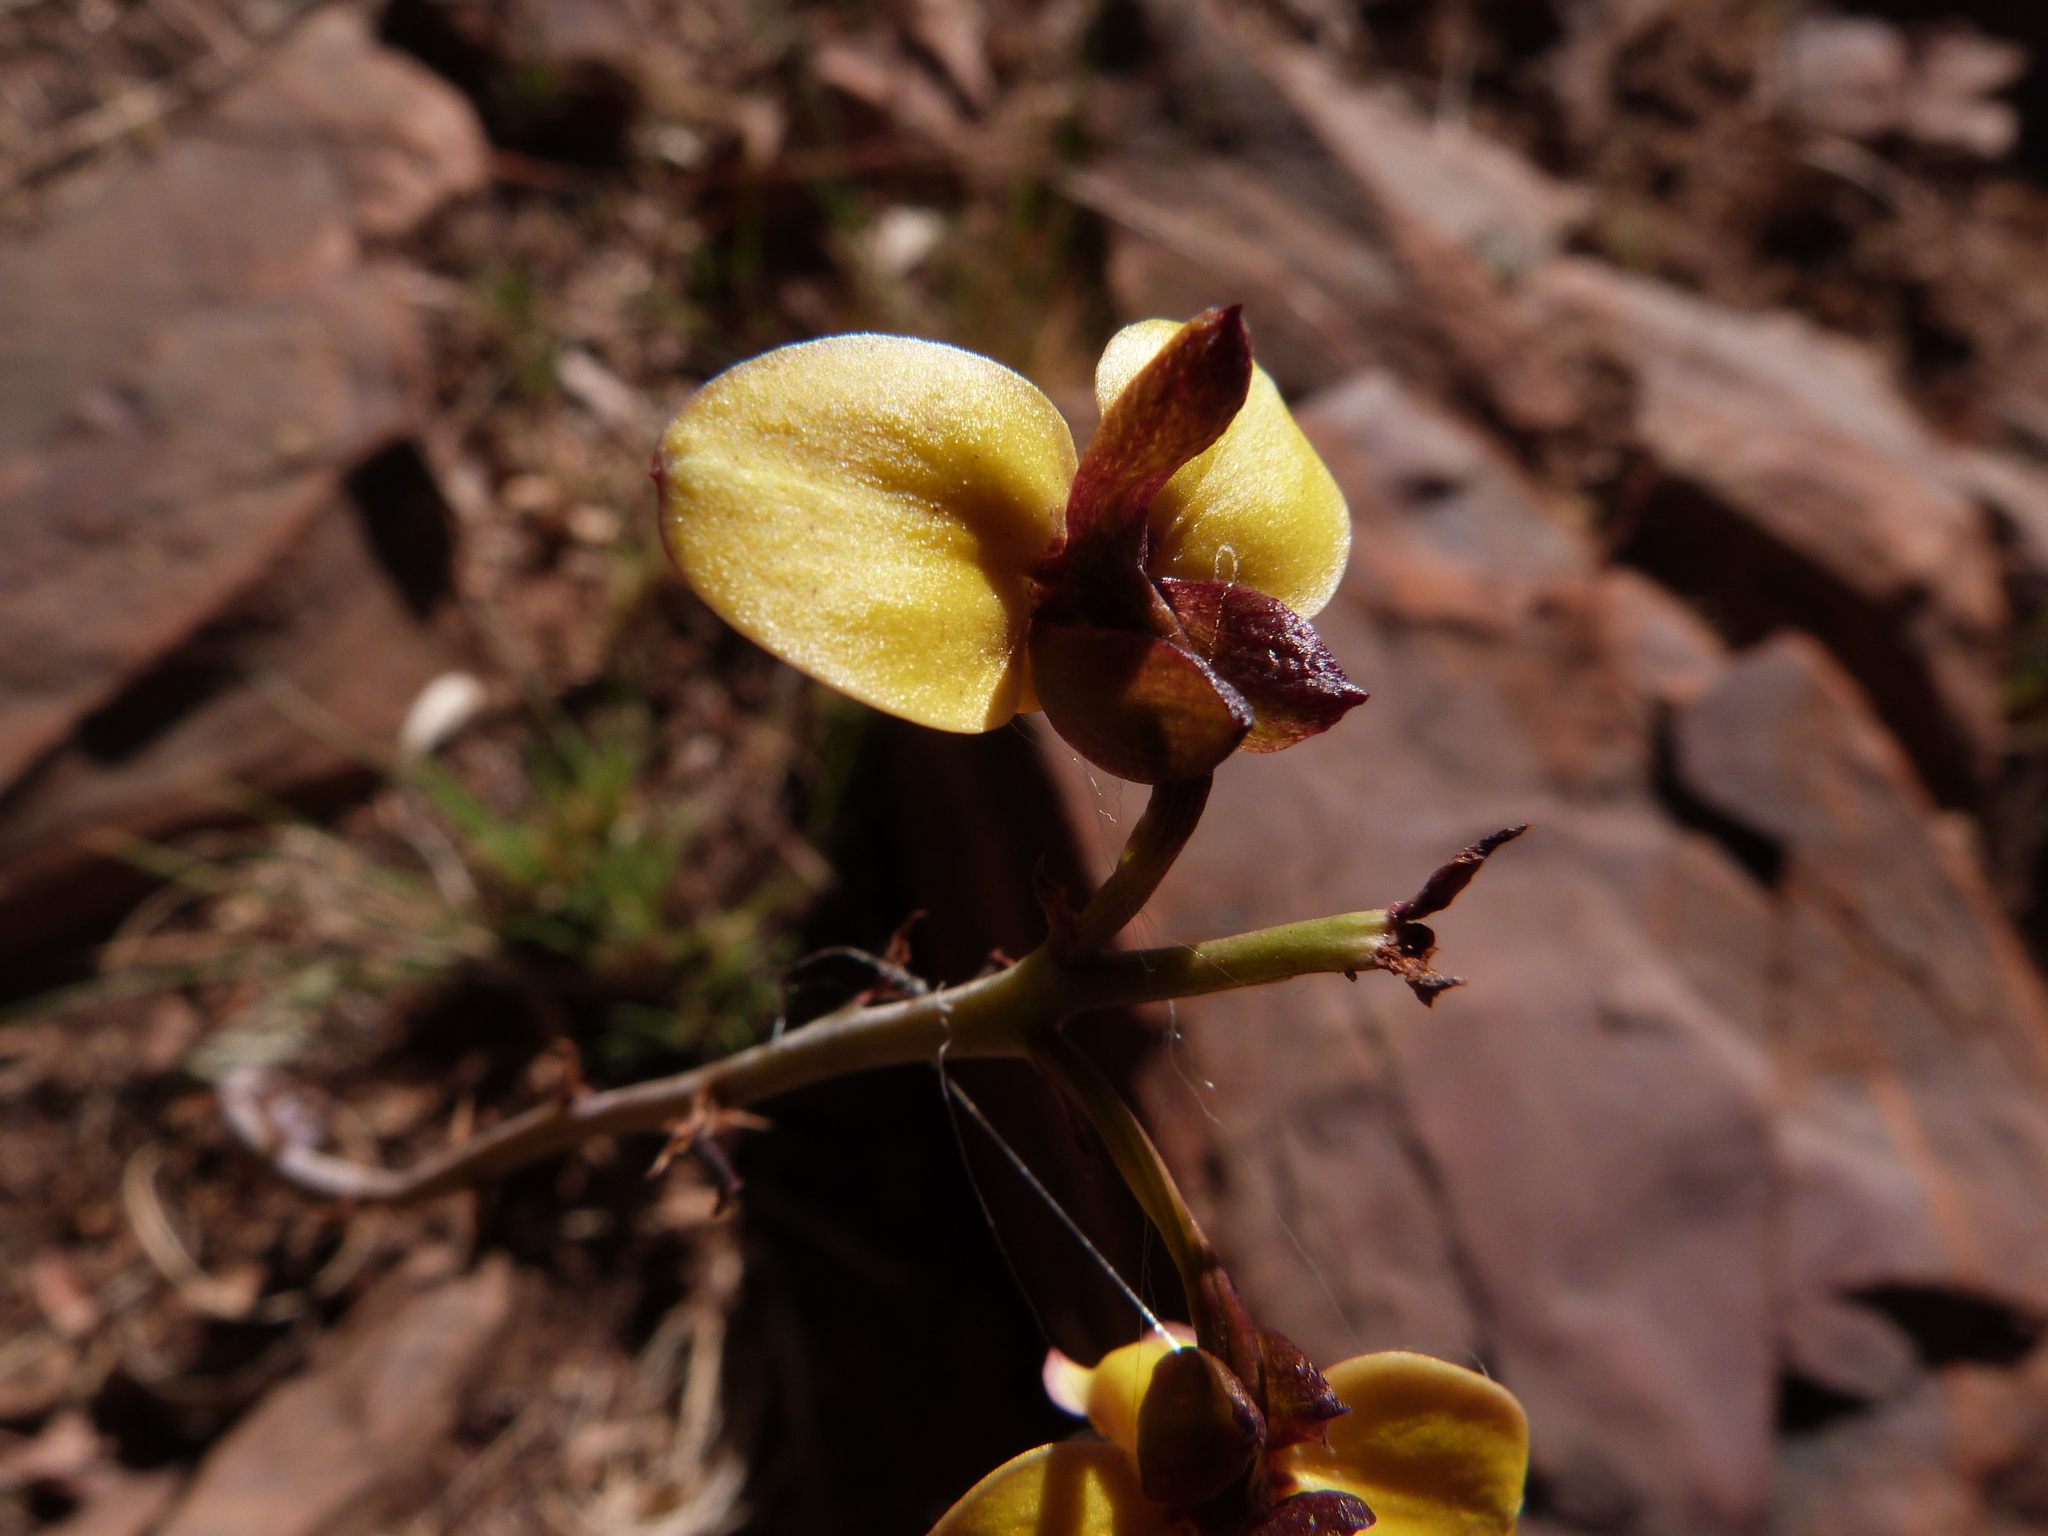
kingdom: Plantae
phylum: Tracheophyta
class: Liliopsida
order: Asparagales
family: Orchidaceae
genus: Eulophia
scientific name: Eulophia tuberculata
